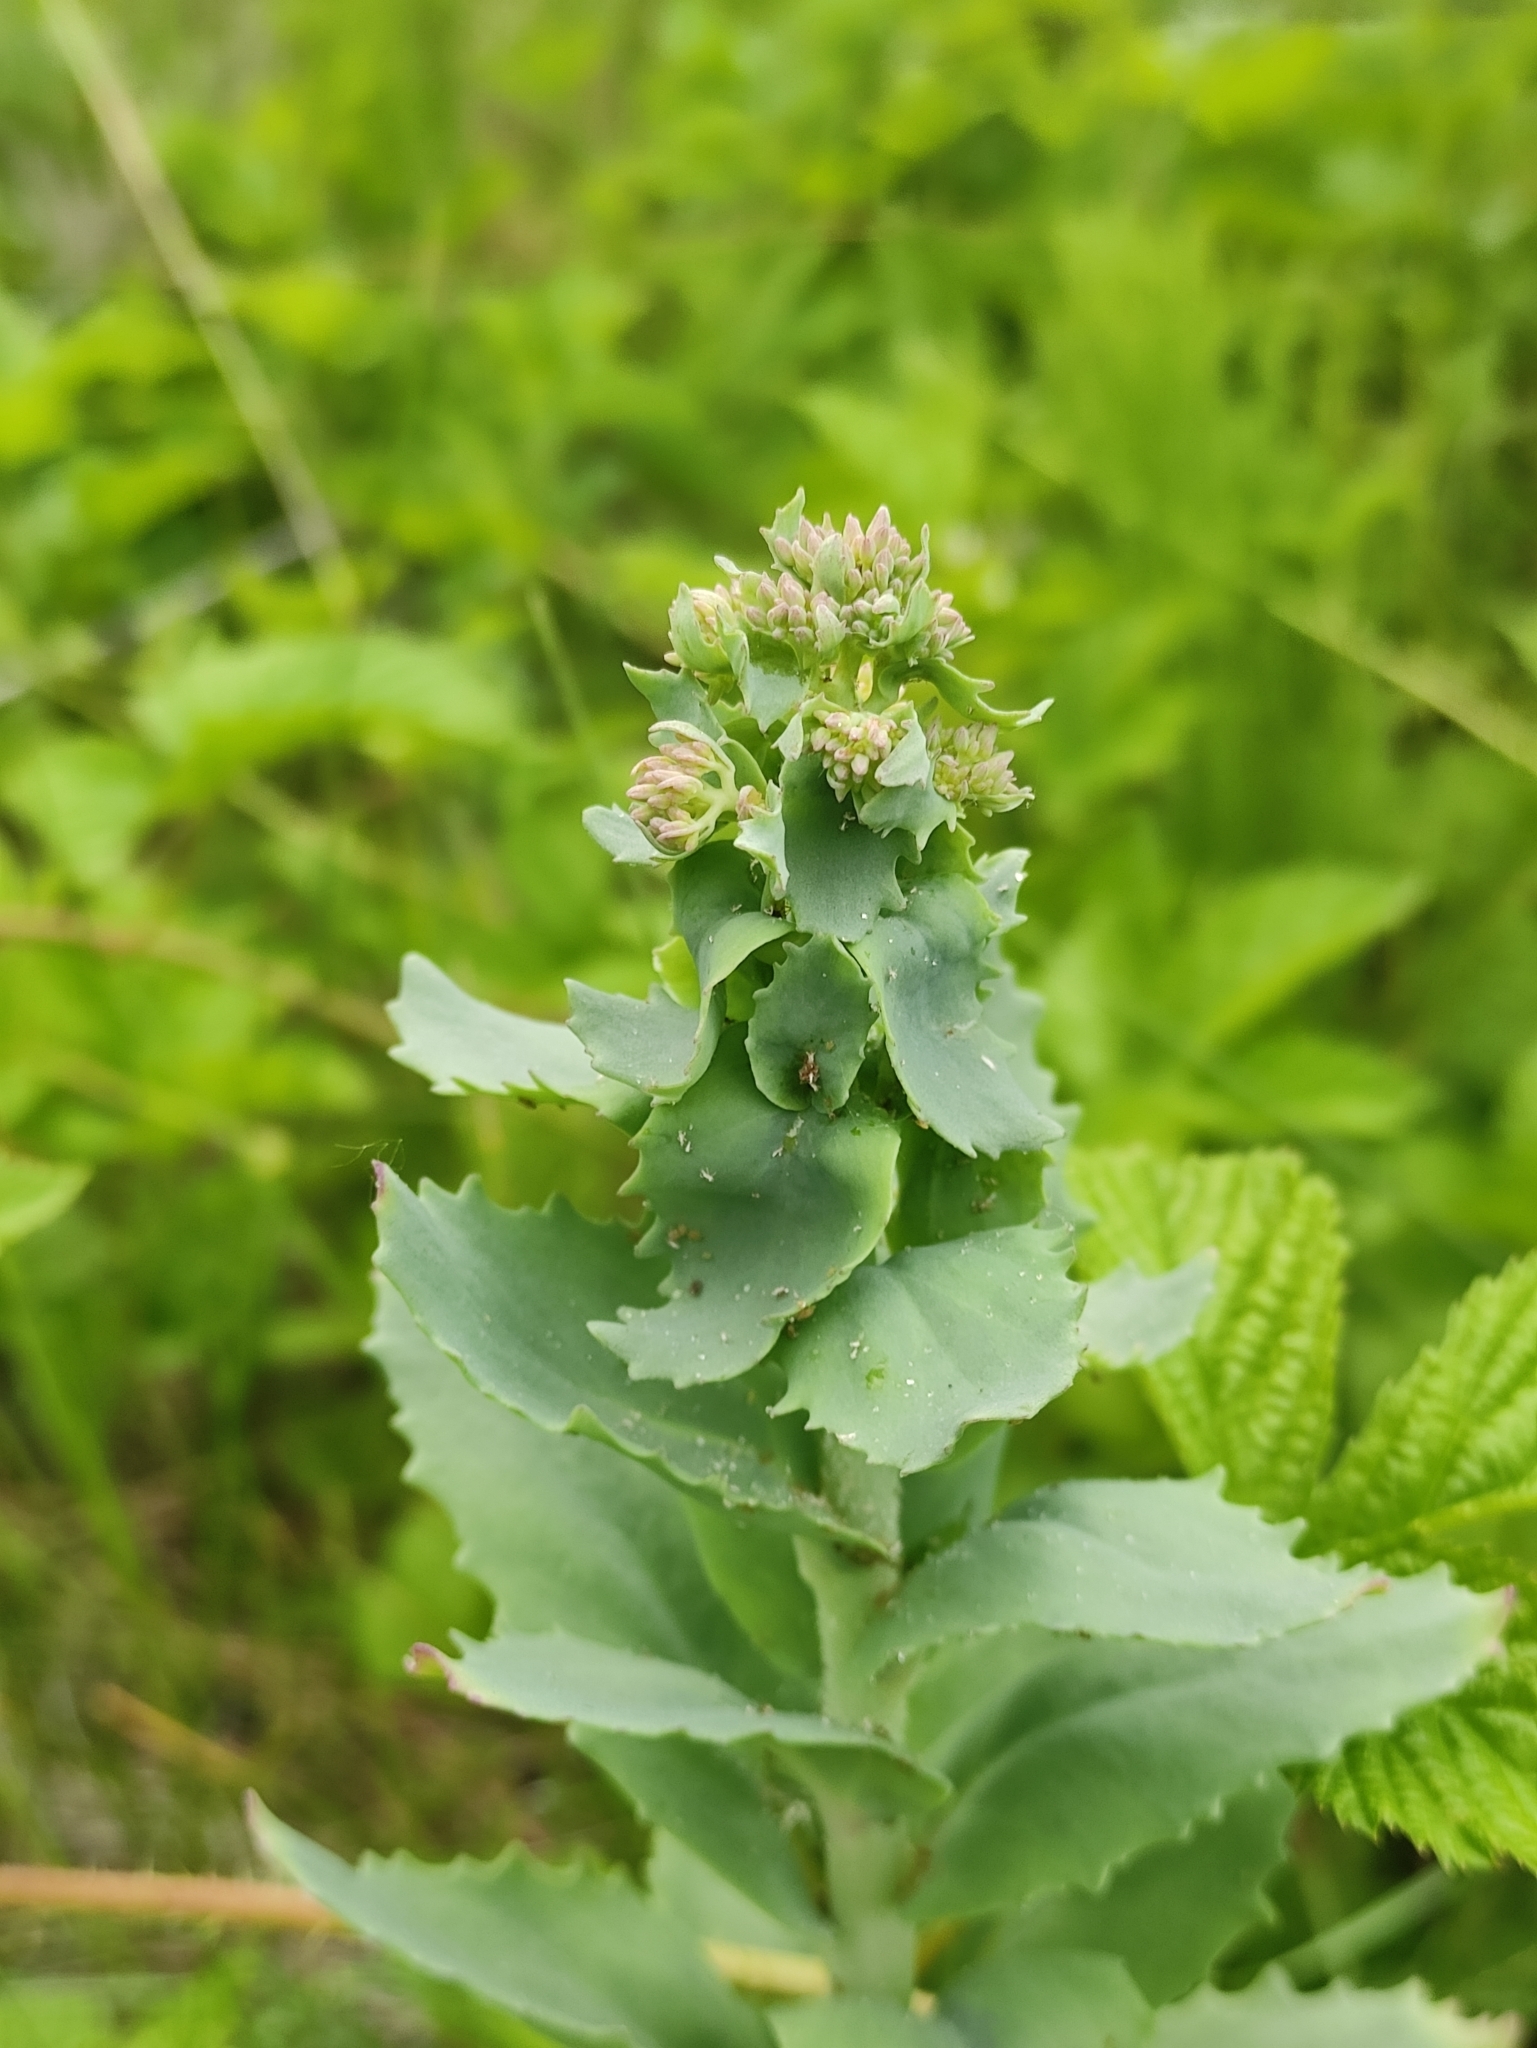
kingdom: Plantae
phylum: Tracheophyta
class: Magnoliopsida
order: Saxifragales
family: Crassulaceae
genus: Hylotelephium
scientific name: Hylotelephium telephium
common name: Live-forever
